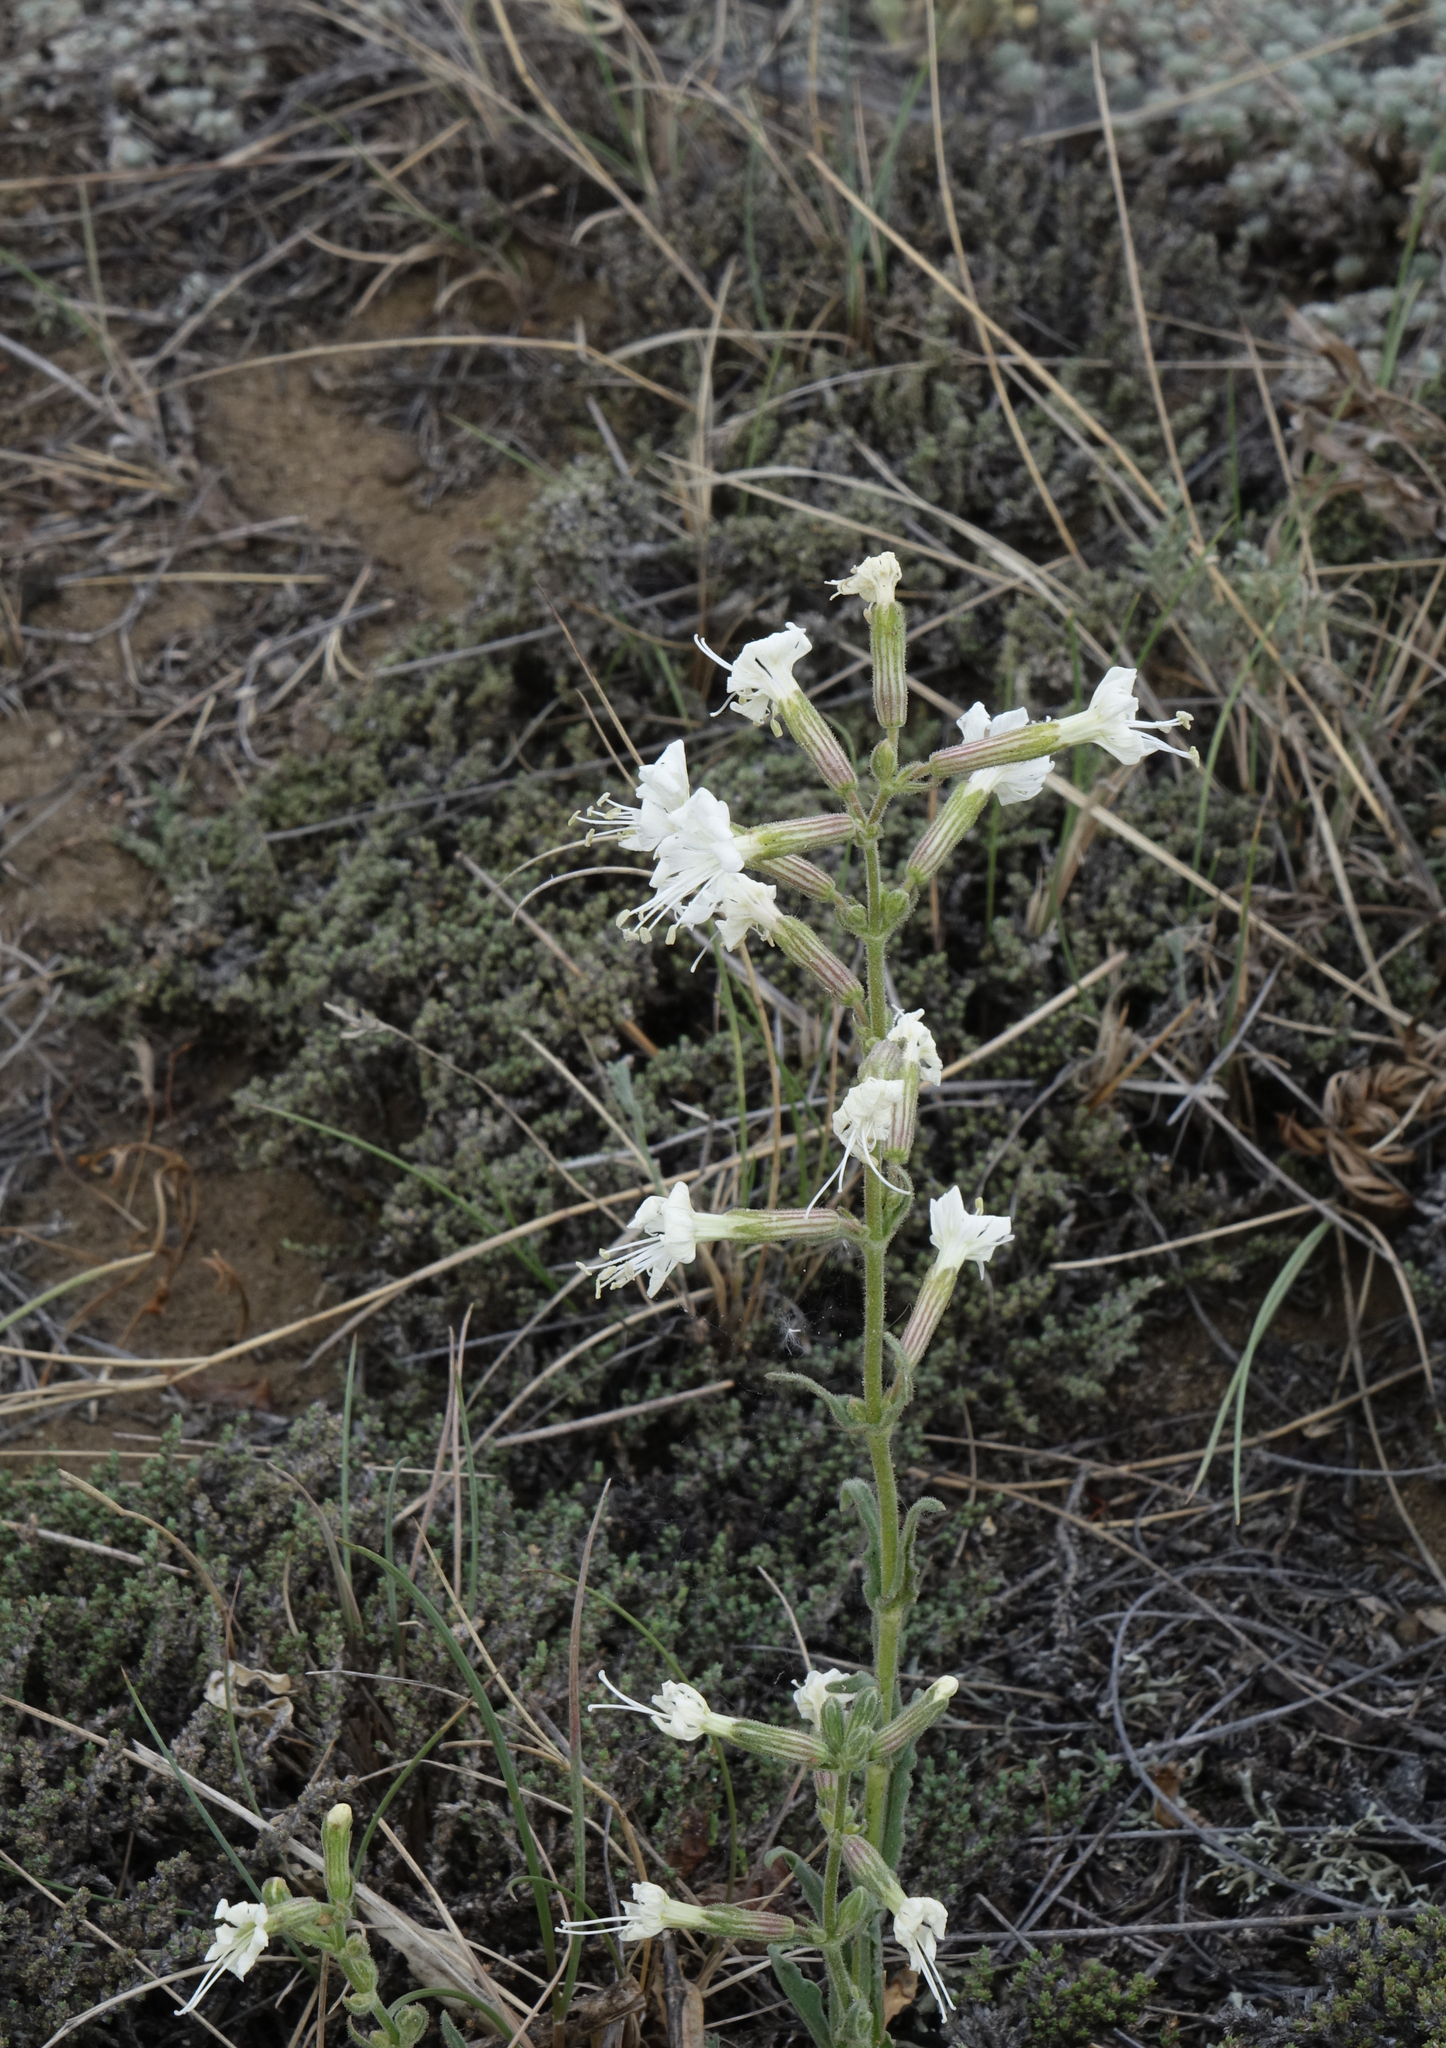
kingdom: Plantae
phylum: Tracheophyta
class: Magnoliopsida
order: Caryophyllales
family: Caryophyllaceae
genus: Silene
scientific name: Silene viscosa
